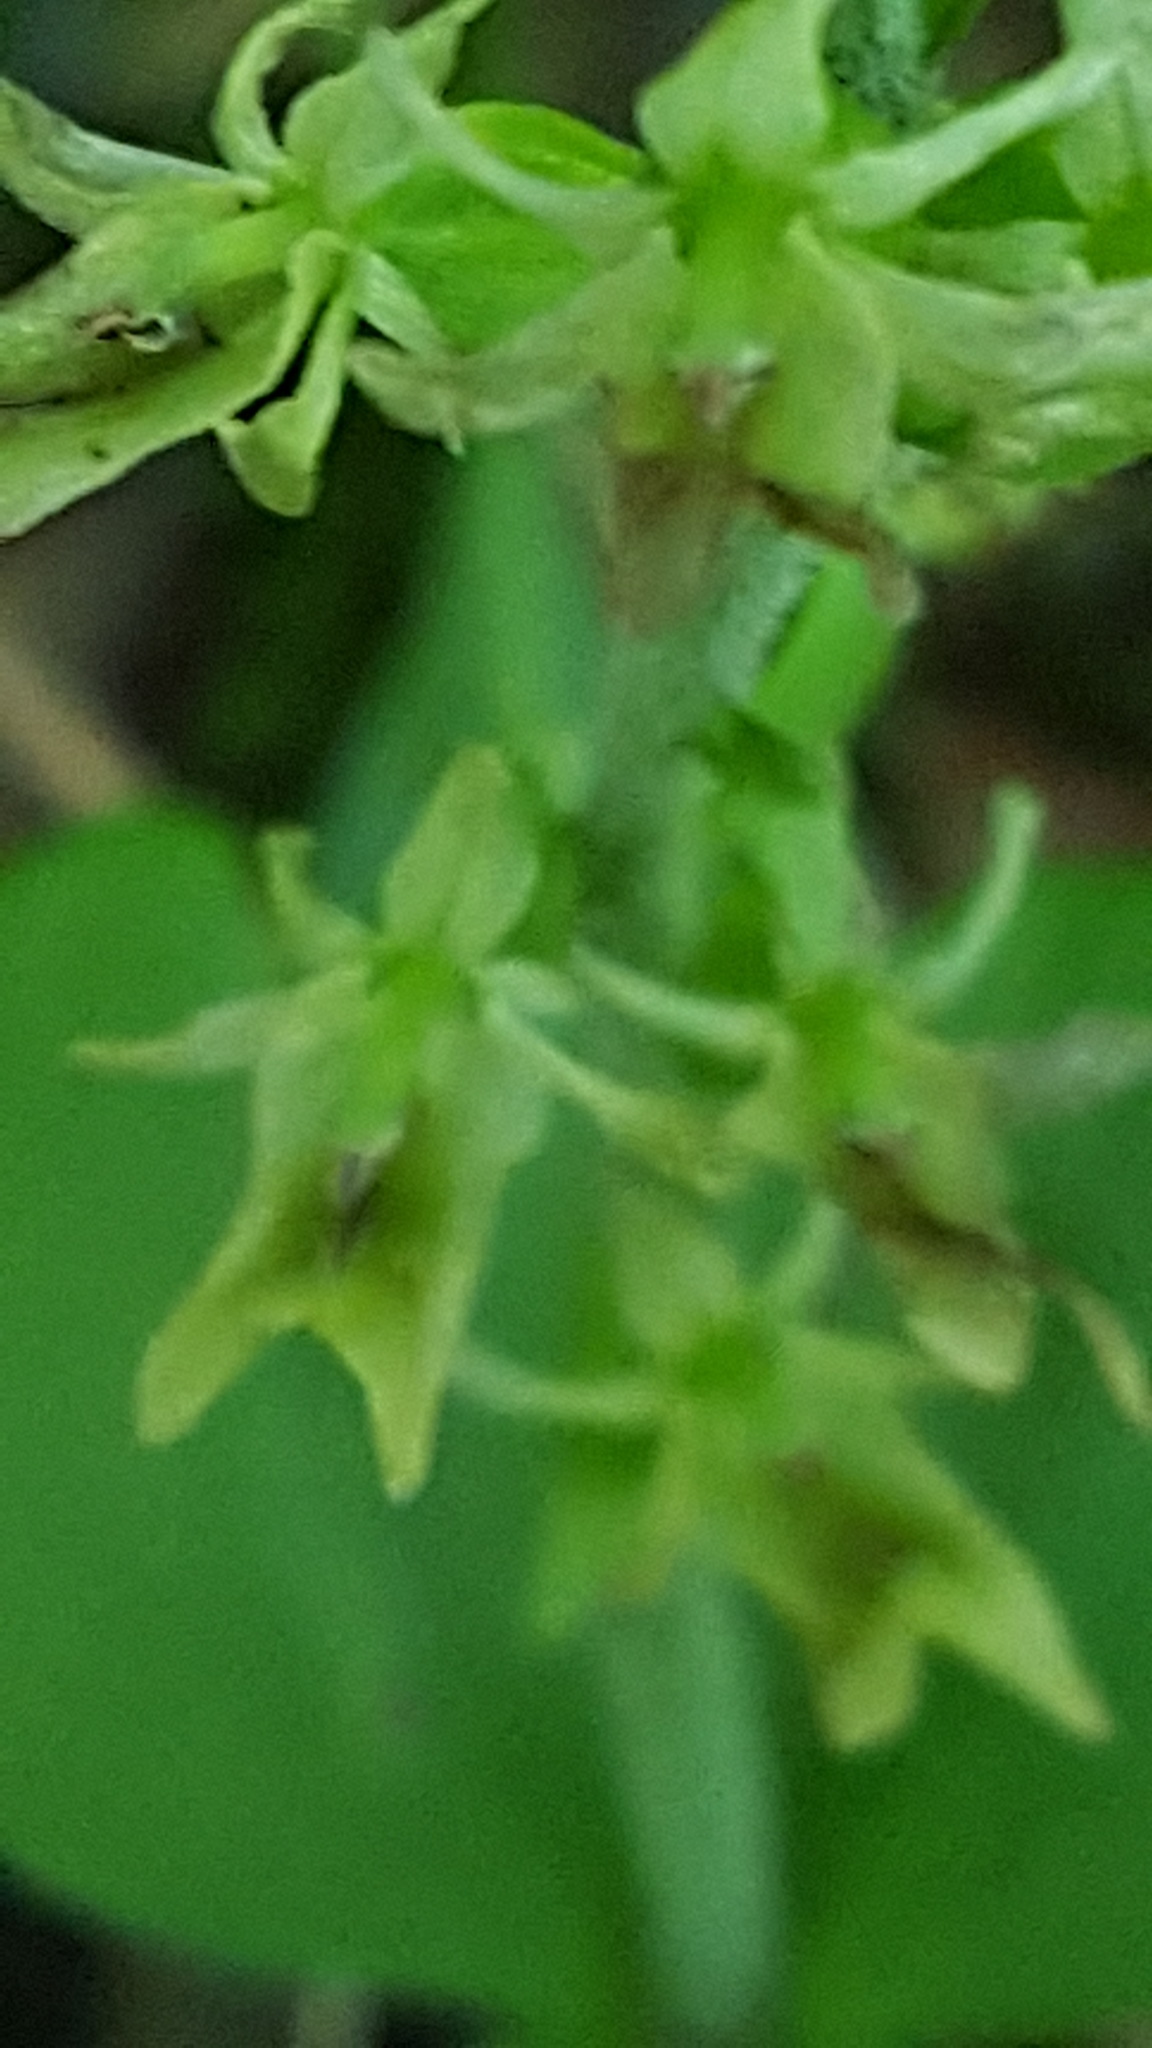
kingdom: Plantae
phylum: Tracheophyta
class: Liliopsida
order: Asparagales
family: Orchidaceae
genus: Neottia
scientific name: Neottia auriculata
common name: Auricled twayblade
